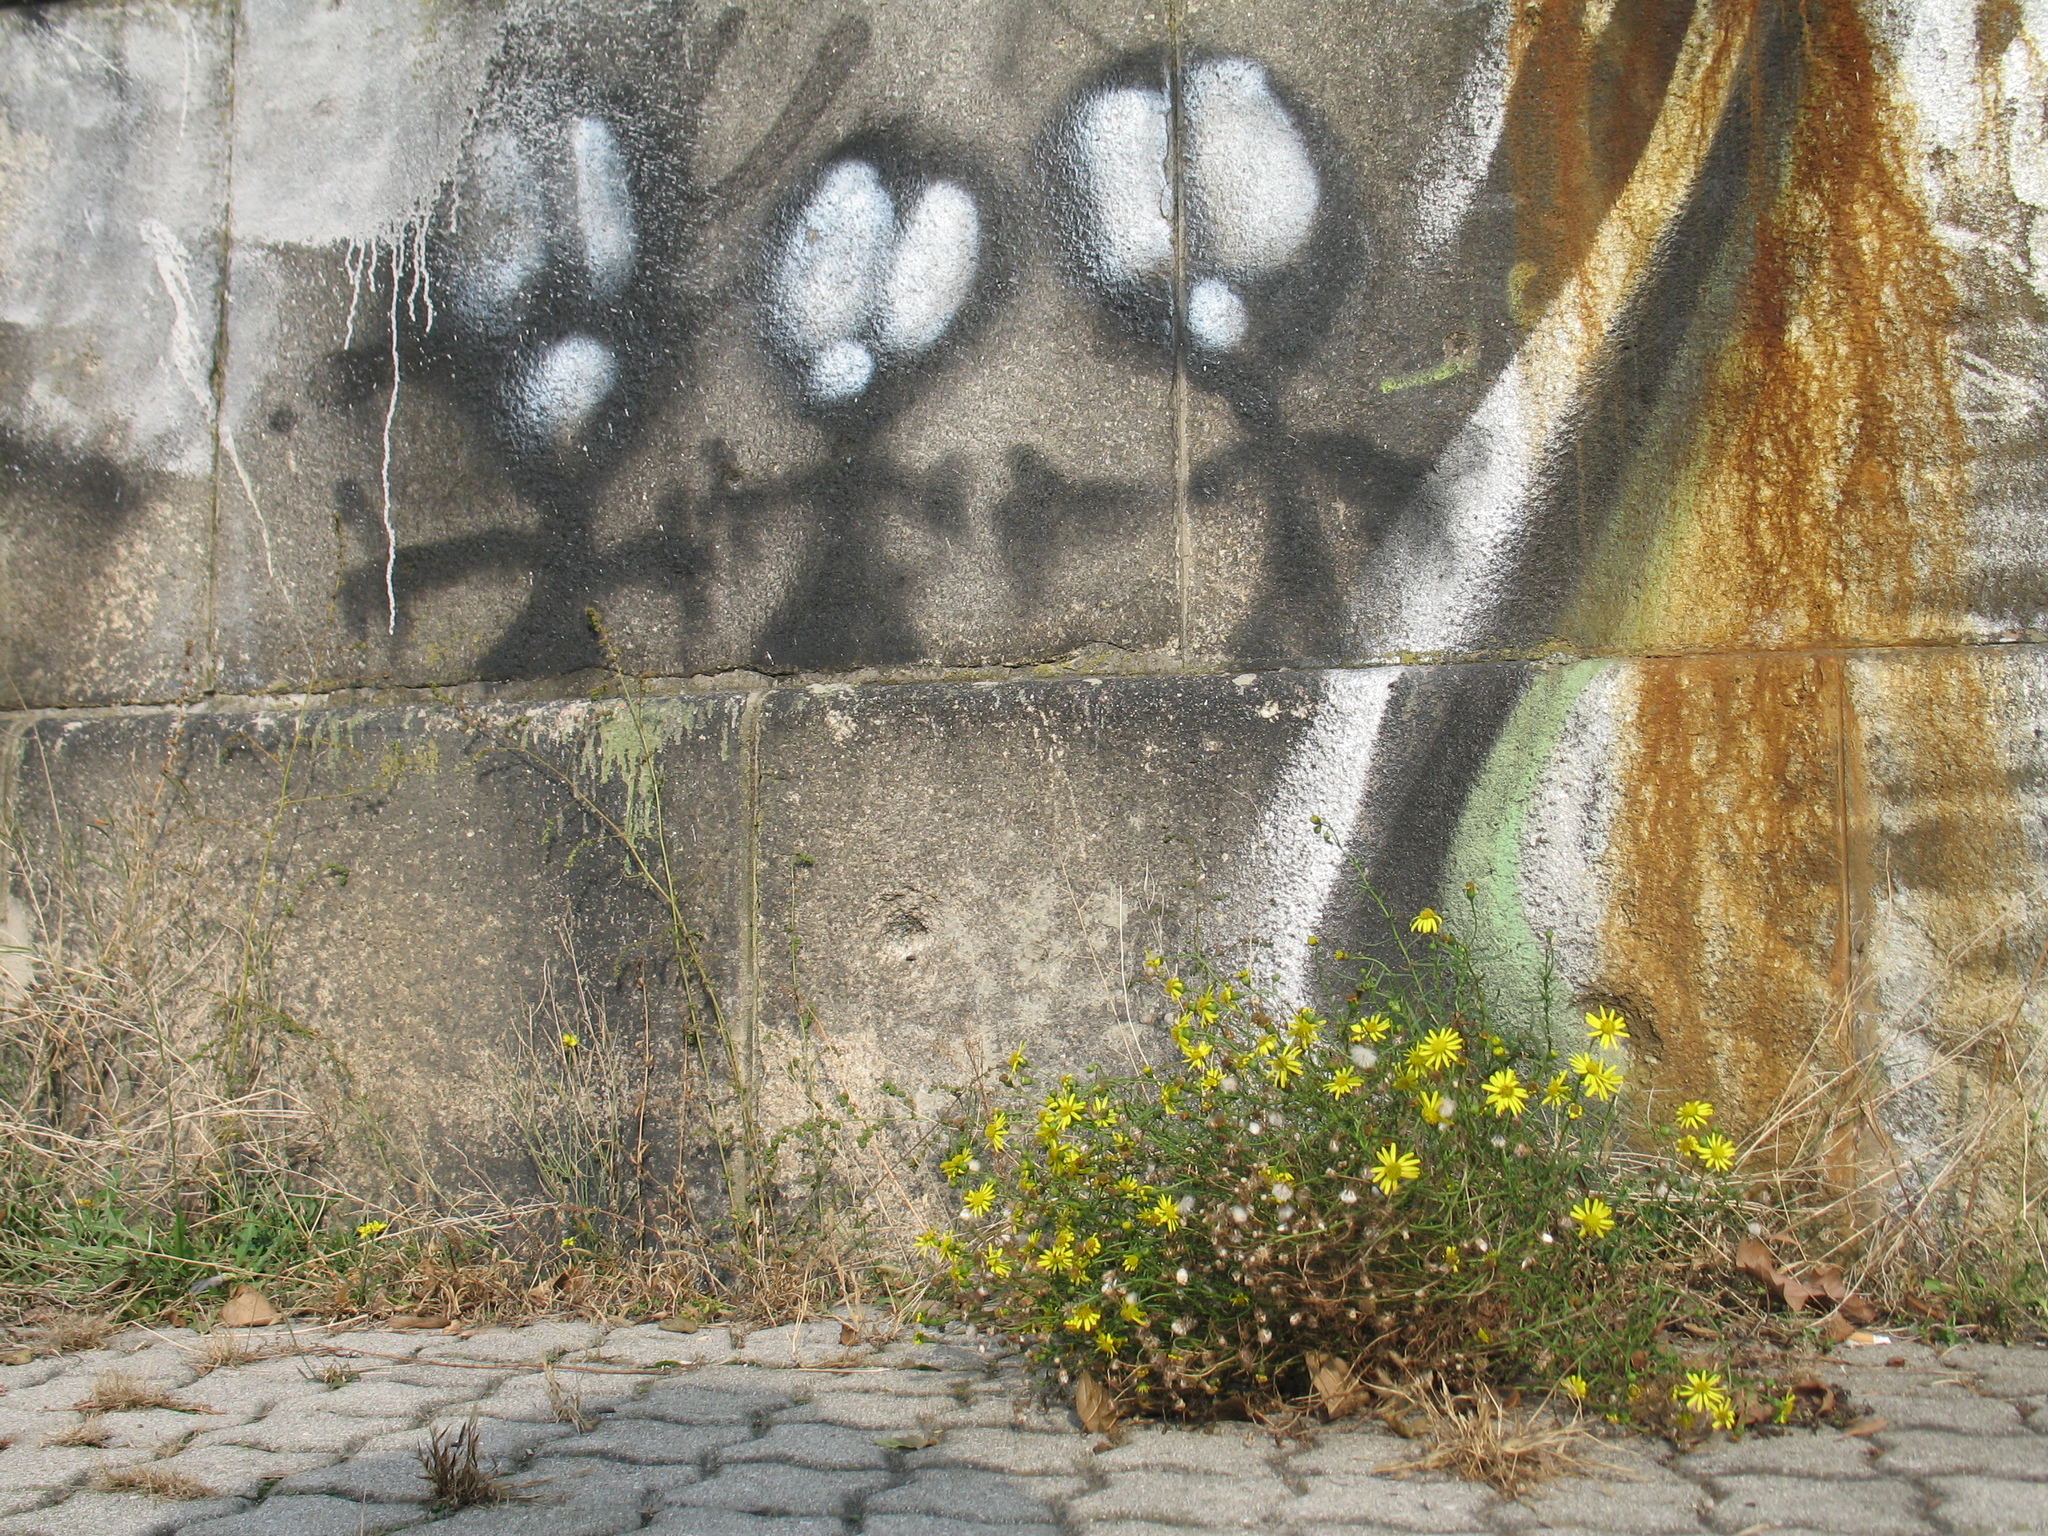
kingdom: Plantae
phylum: Tracheophyta
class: Magnoliopsida
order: Asterales
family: Asteraceae
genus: Senecio
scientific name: Senecio inaequidens
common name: Narrow-leaved ragwort
